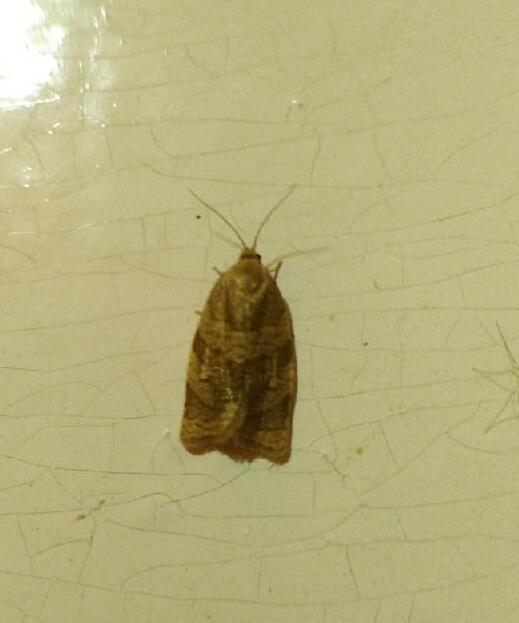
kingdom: Animalia
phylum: Arthropoda
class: Insecta
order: Lepidoptera
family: Tortricidae
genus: Choristoneura
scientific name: Choristoneura diversana
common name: Forest tortrix
